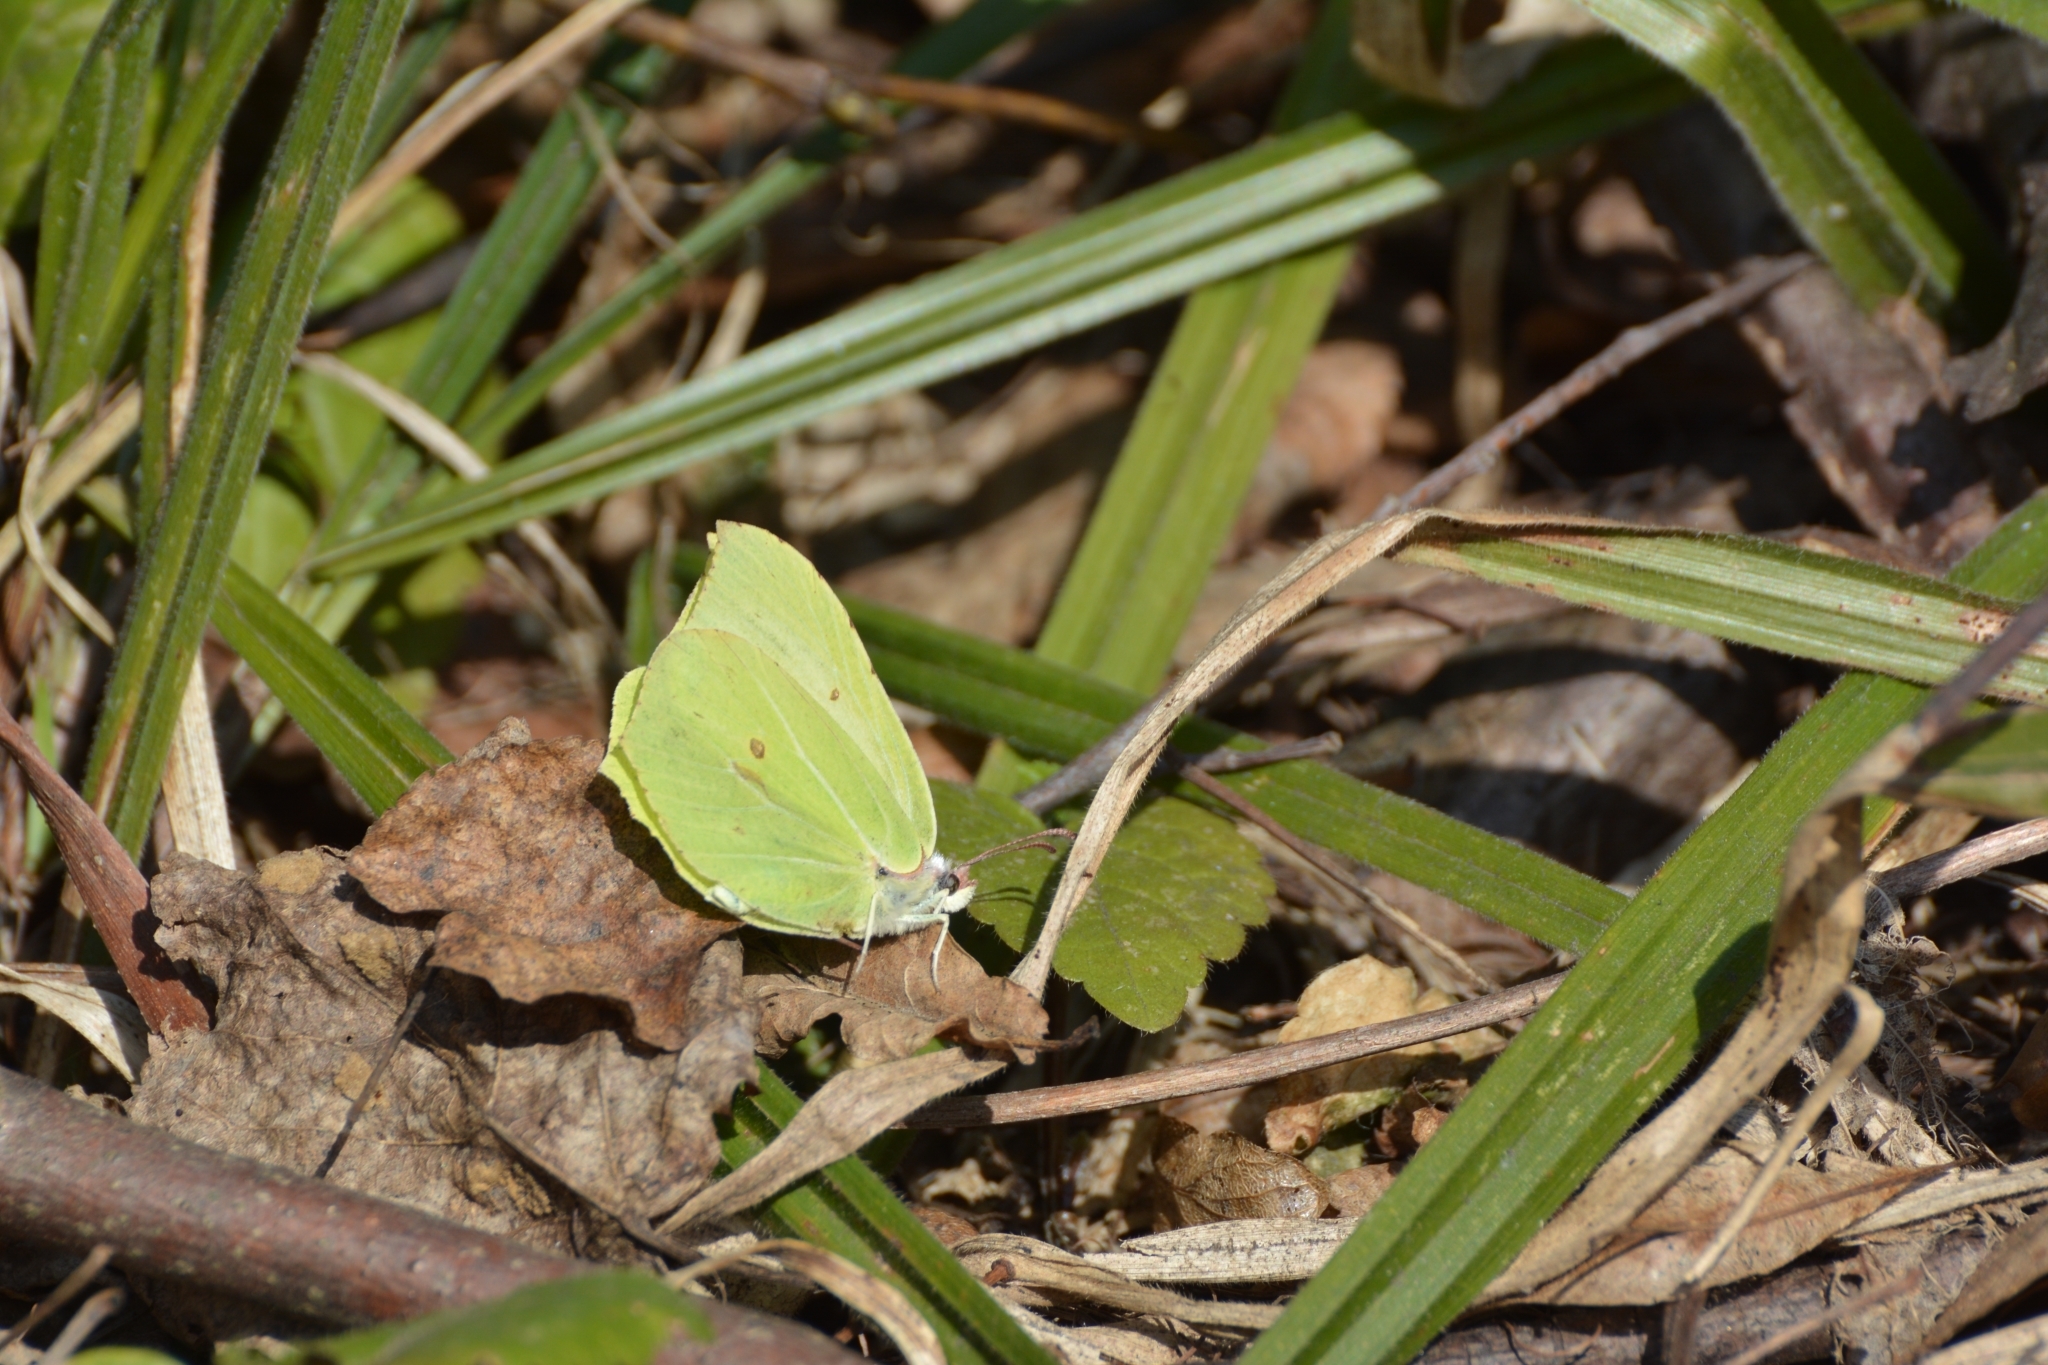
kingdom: Animalia
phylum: Arthropoda
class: Insecta
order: Lepidoptera
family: Pieridae
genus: Gonepteryx
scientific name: Gonepteryx rhamni
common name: Brimstone
